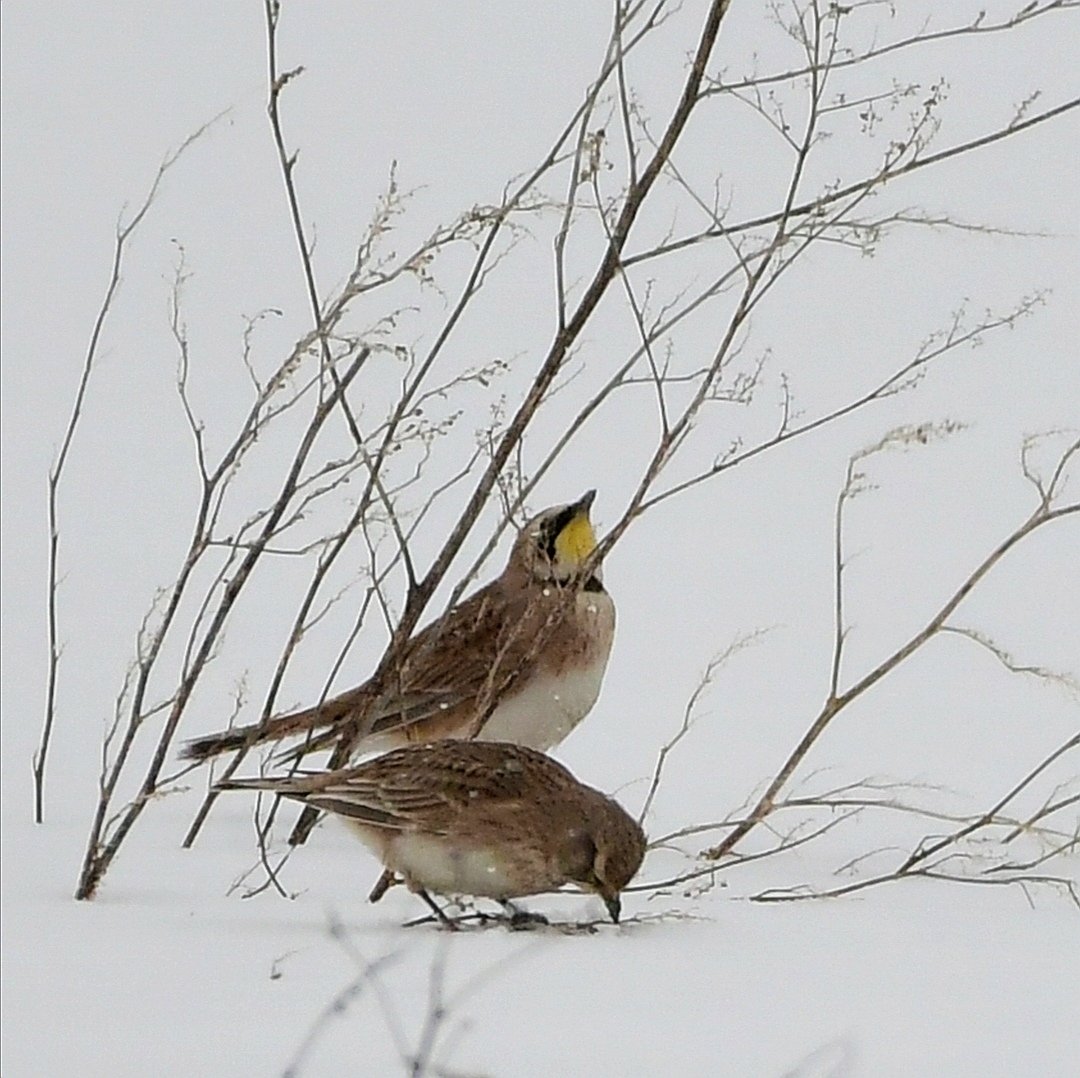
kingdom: Animalia
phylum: Chordata
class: Aves
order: Passeriformes
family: Alaudidae
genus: Eremophila
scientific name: Eremophila alpestris
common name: Horned lark
